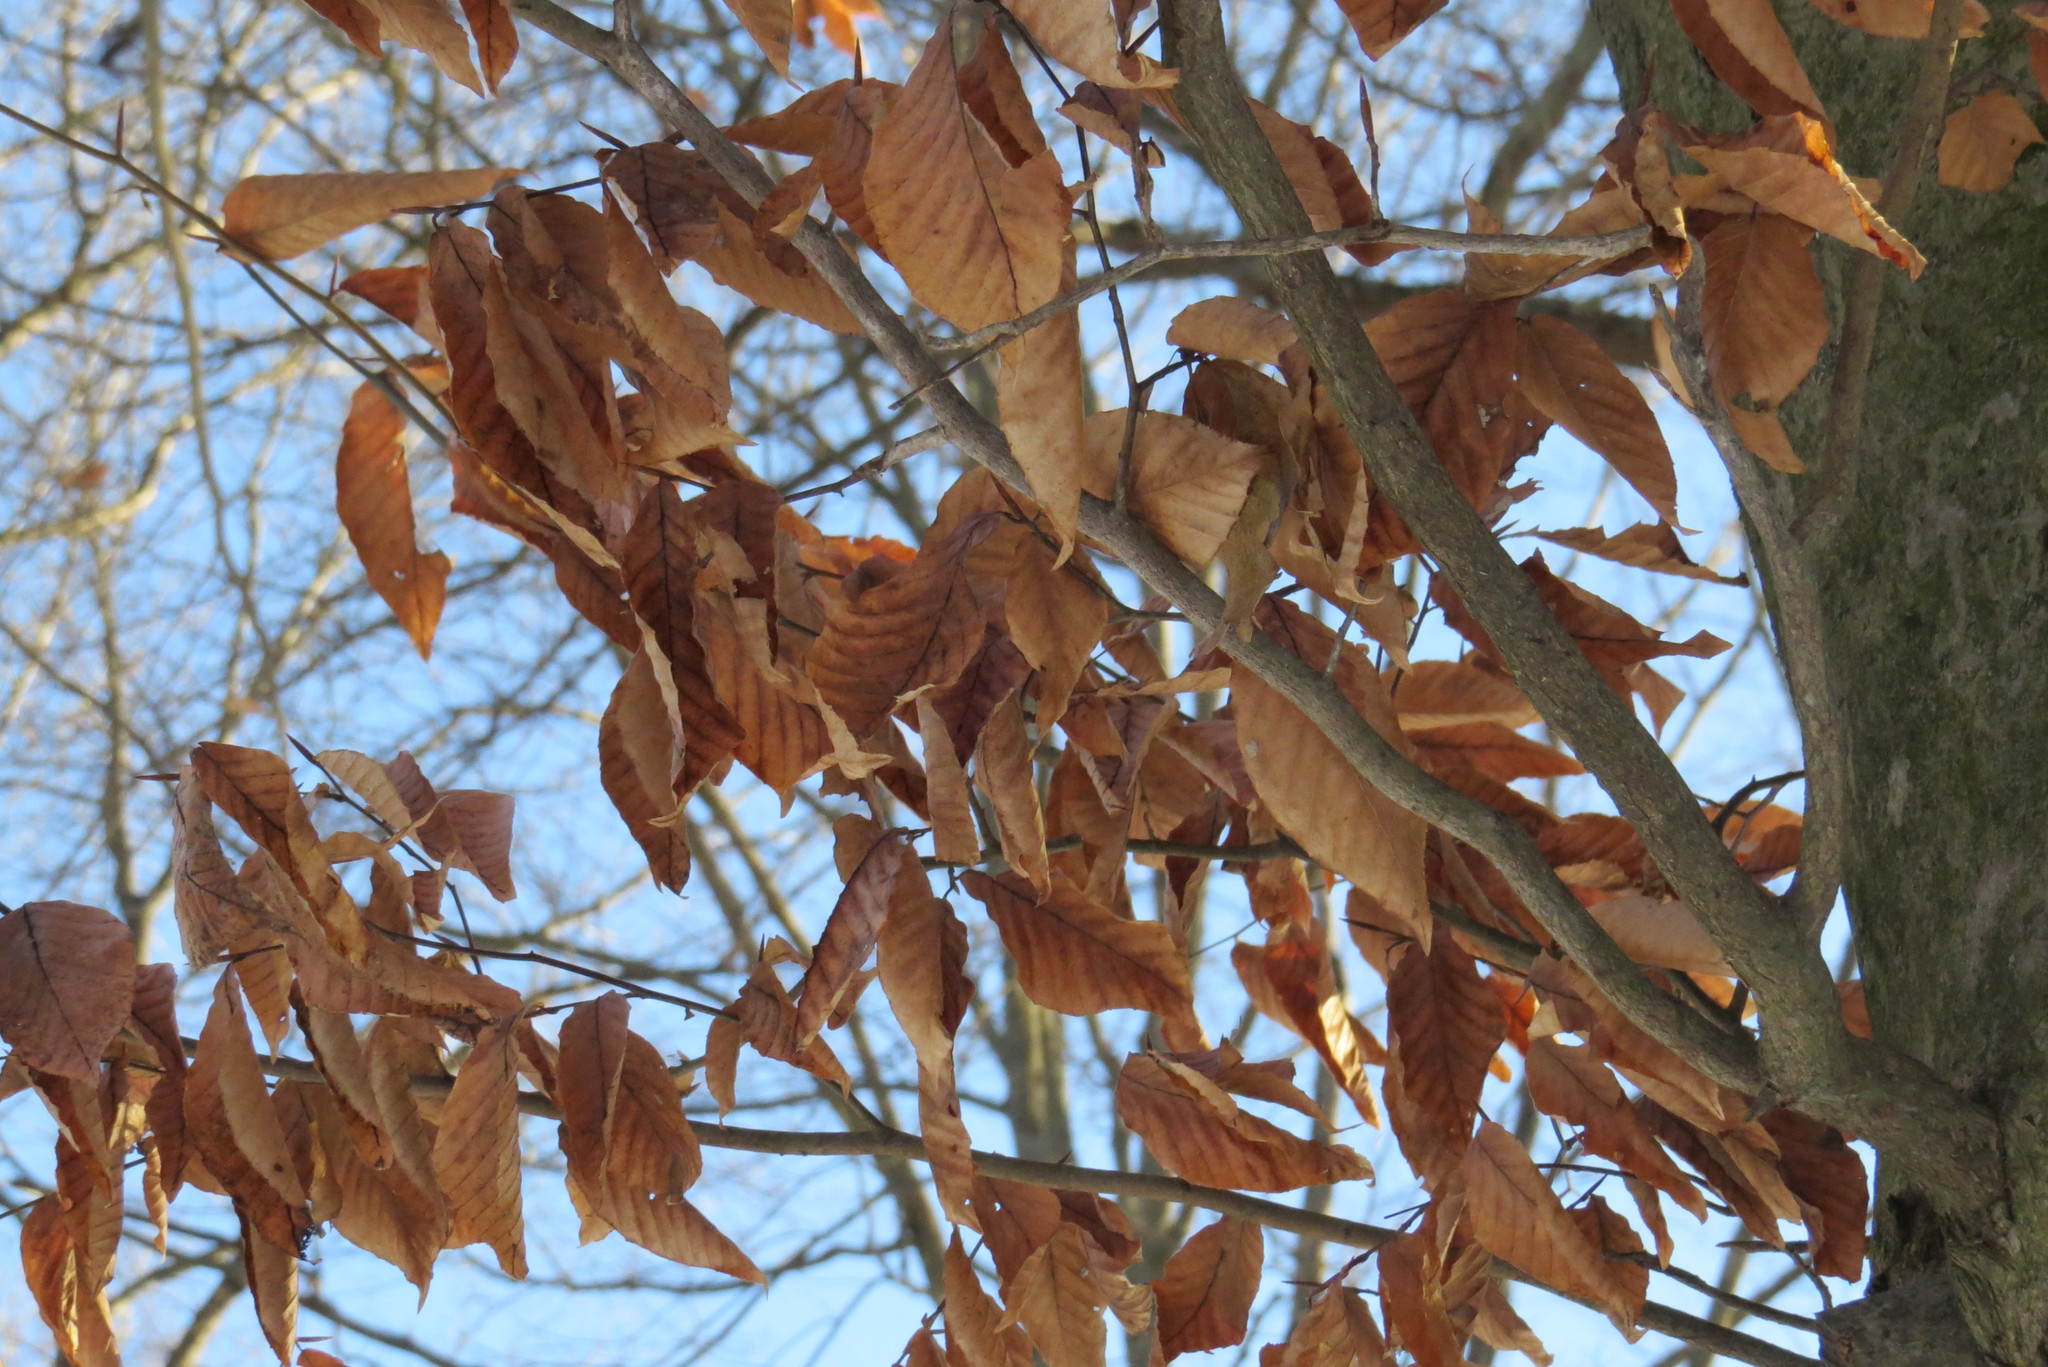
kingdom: Plantae
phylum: Tracheophyta
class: Magnoliopsida
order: Fagales
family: Fagaceae
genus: Fagus
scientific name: Fagus grandifolia
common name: American beech
